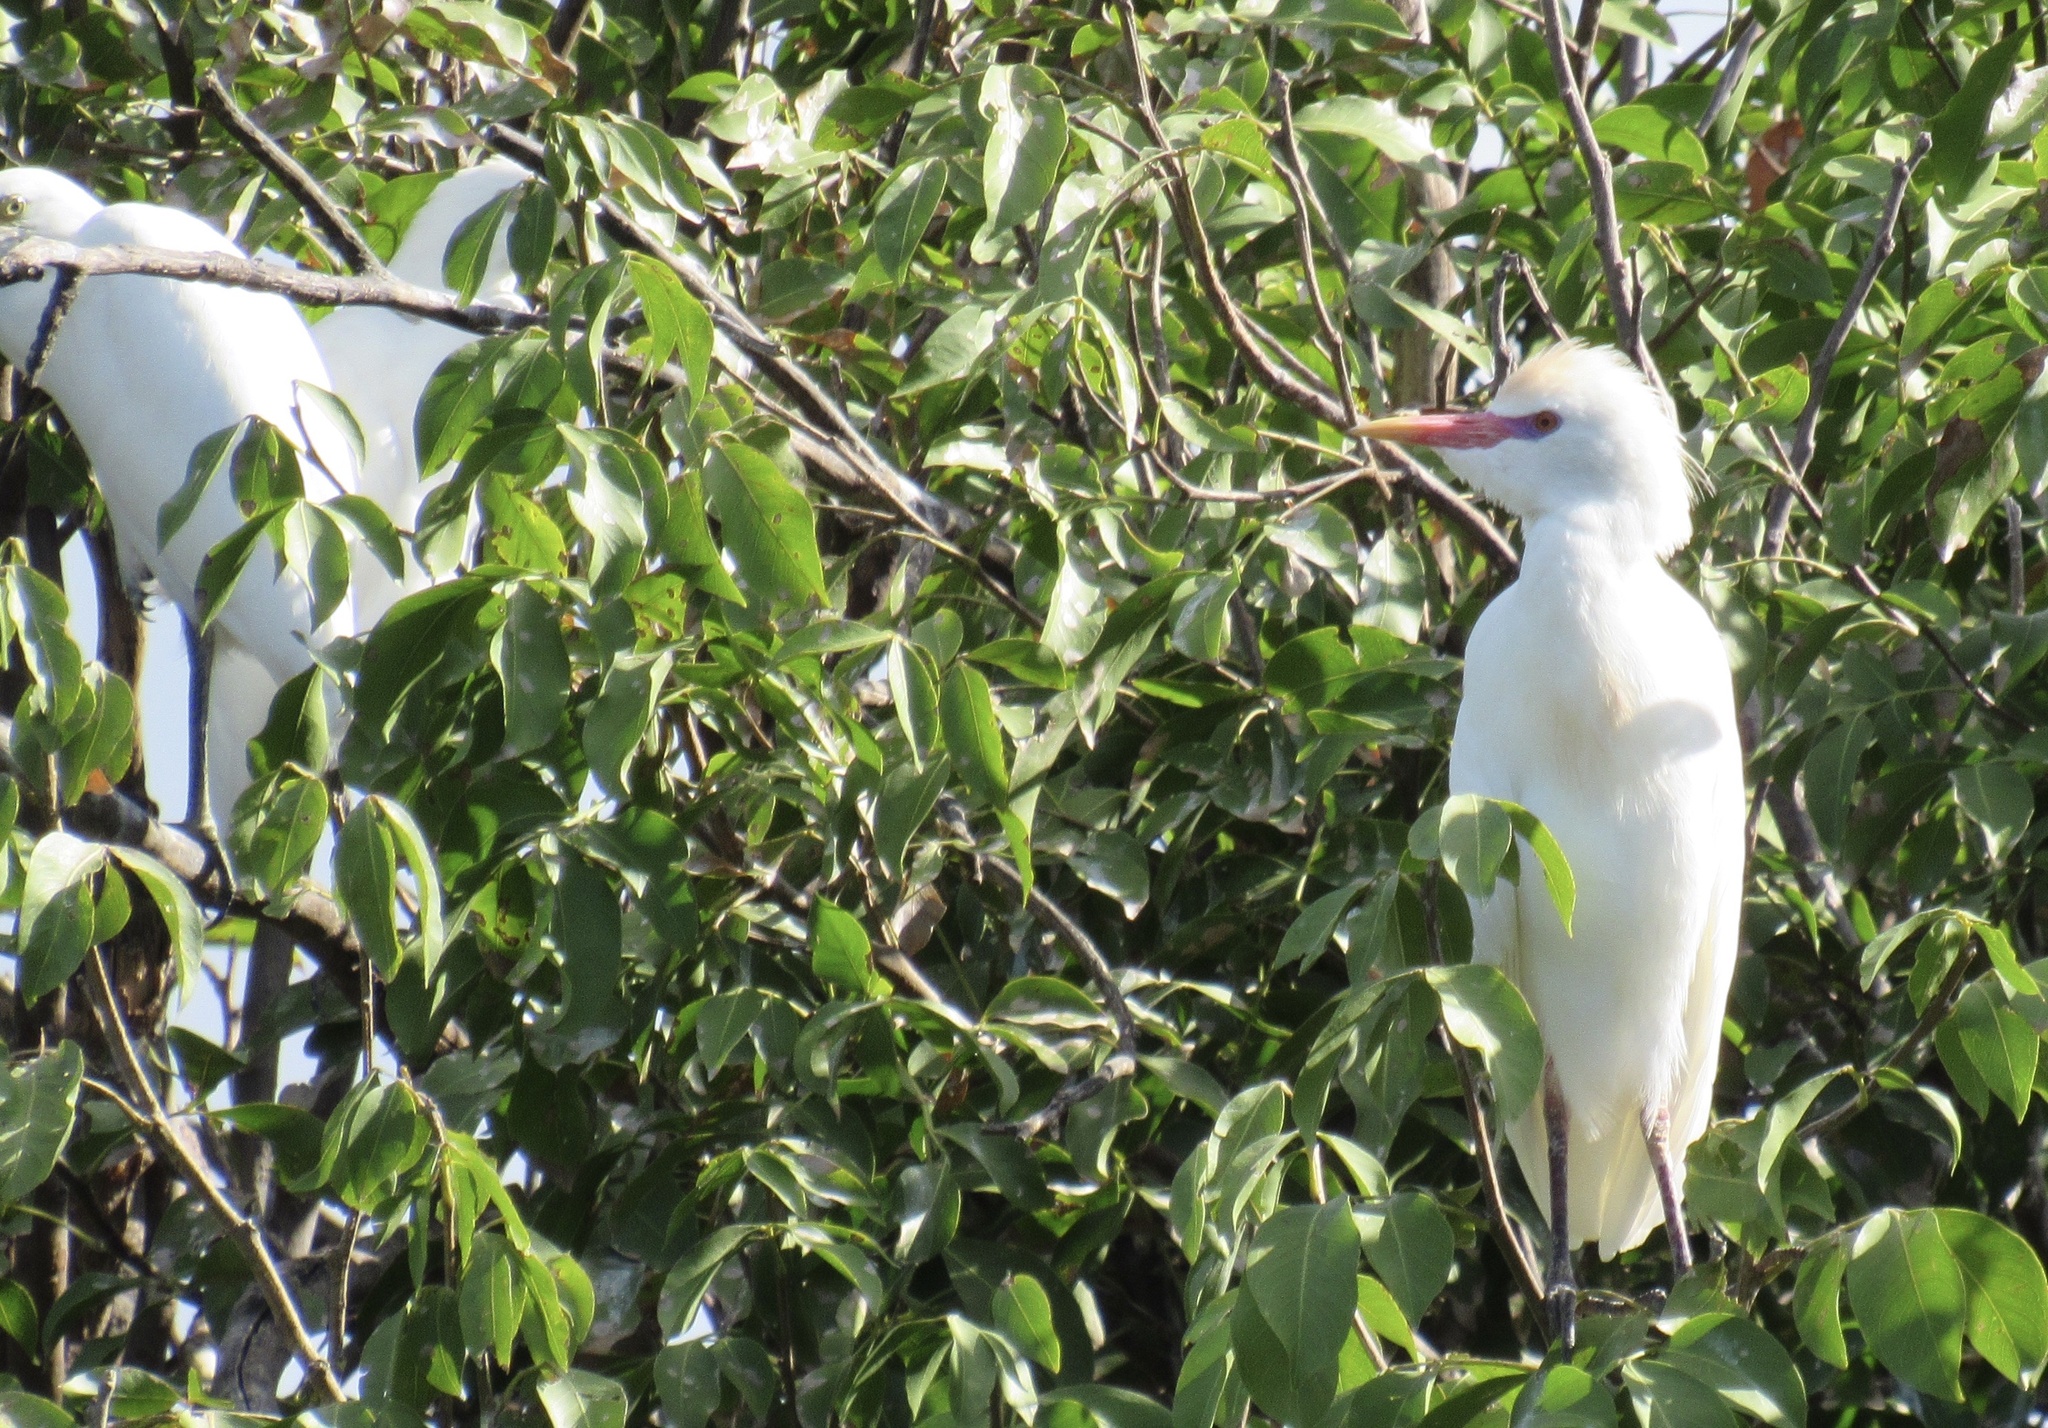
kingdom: Animalia
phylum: Chordata
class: Aves
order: Pelecaniformes
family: Ardeidae
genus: Bubulcus
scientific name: Bubulcus ibis
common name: Cattle egret
